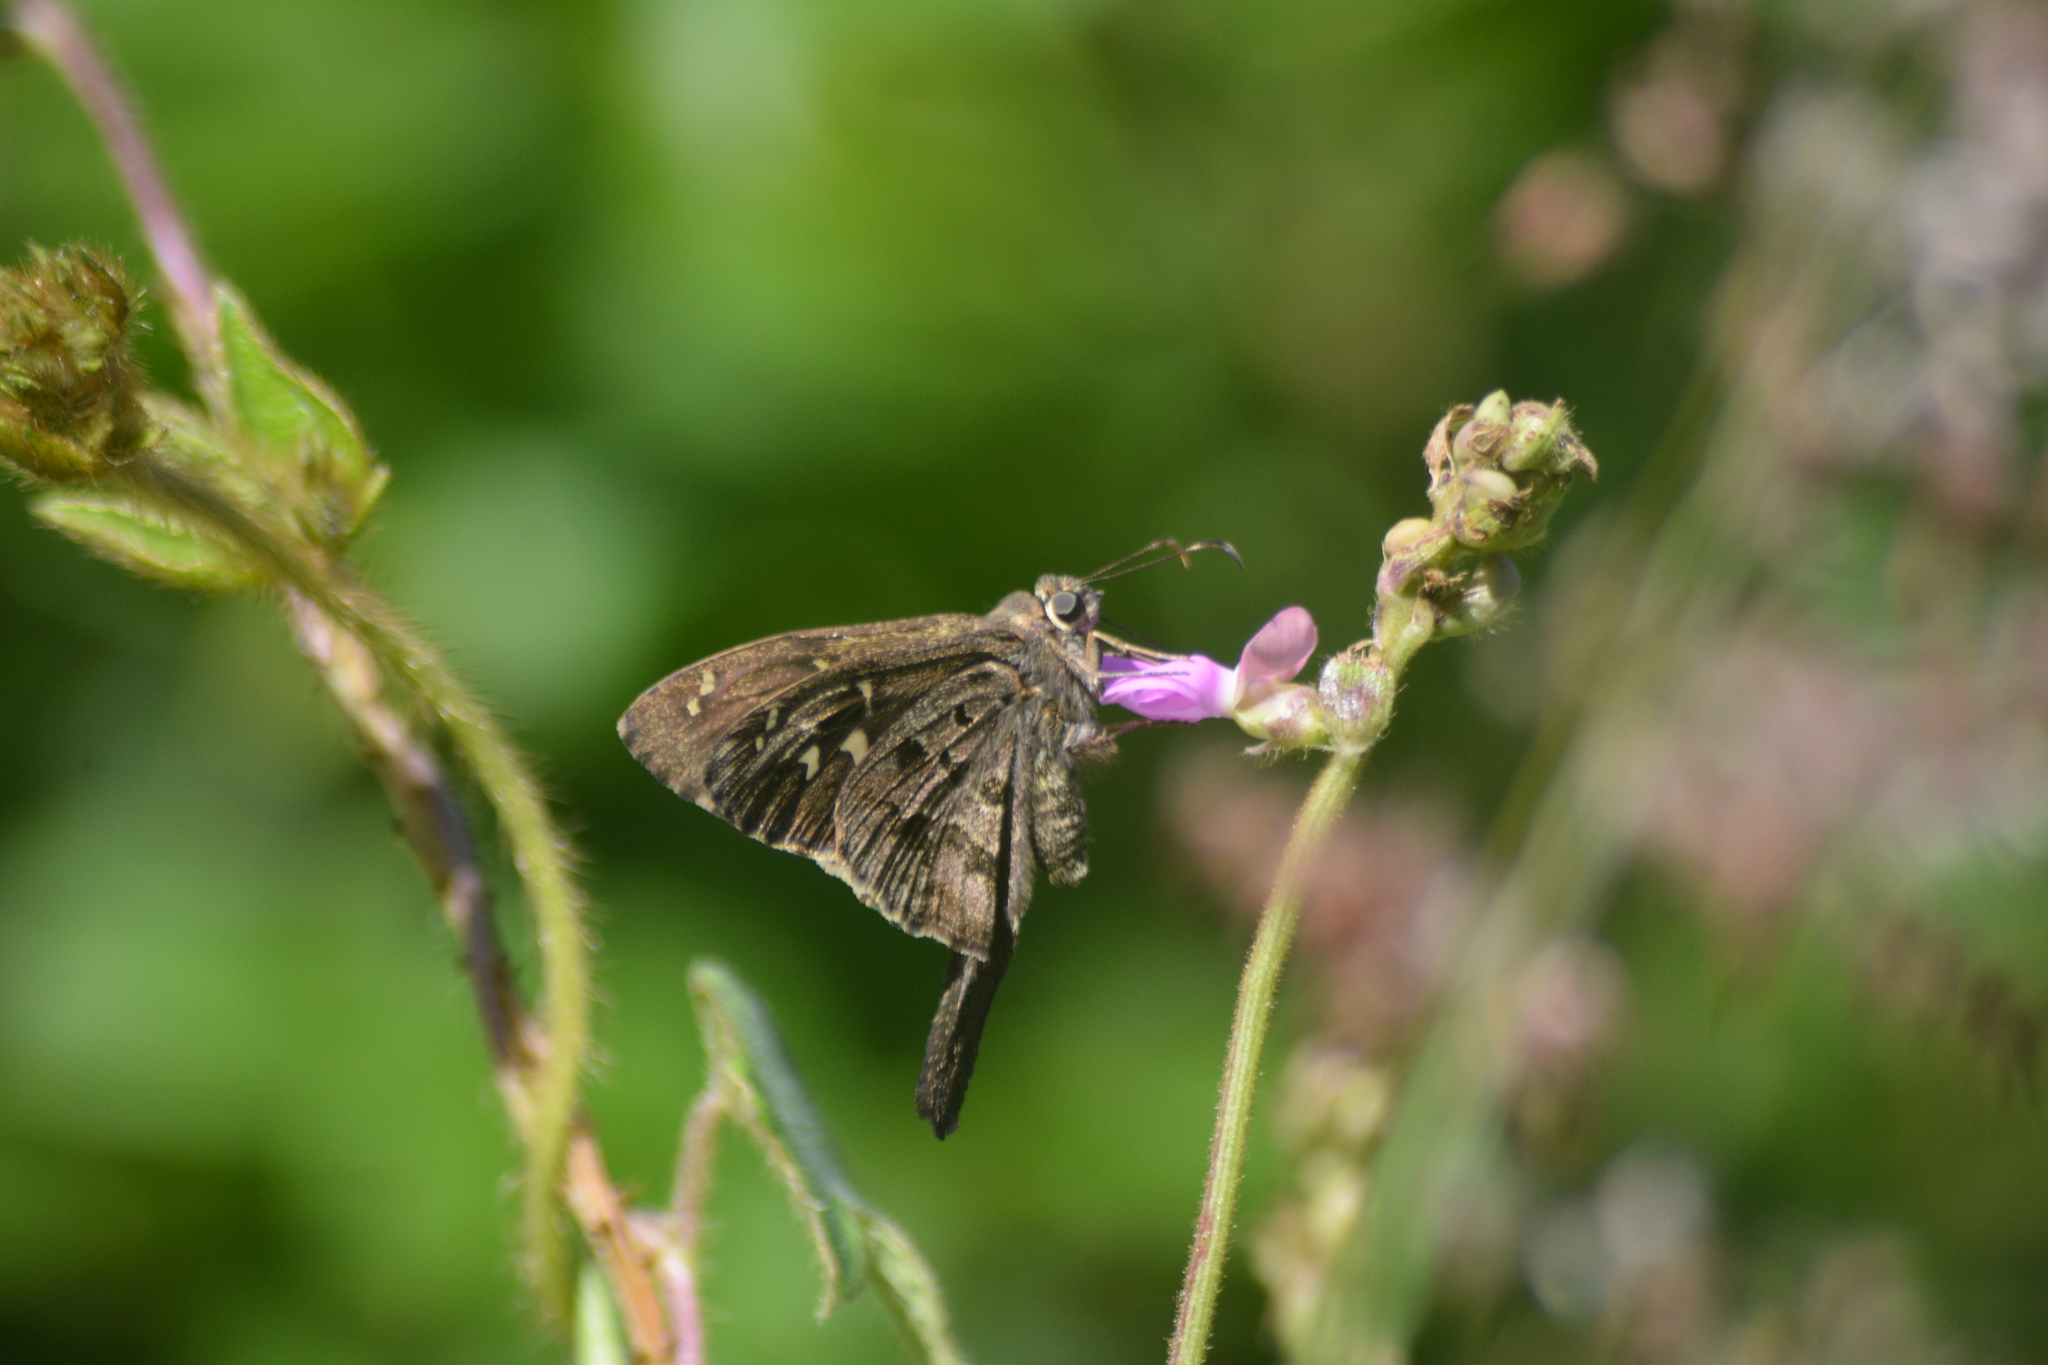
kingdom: Animalia
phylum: Arthropoda
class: Insecta
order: Lepidoptera
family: Hesperiidae
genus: Thorybes
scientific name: Thorybes
